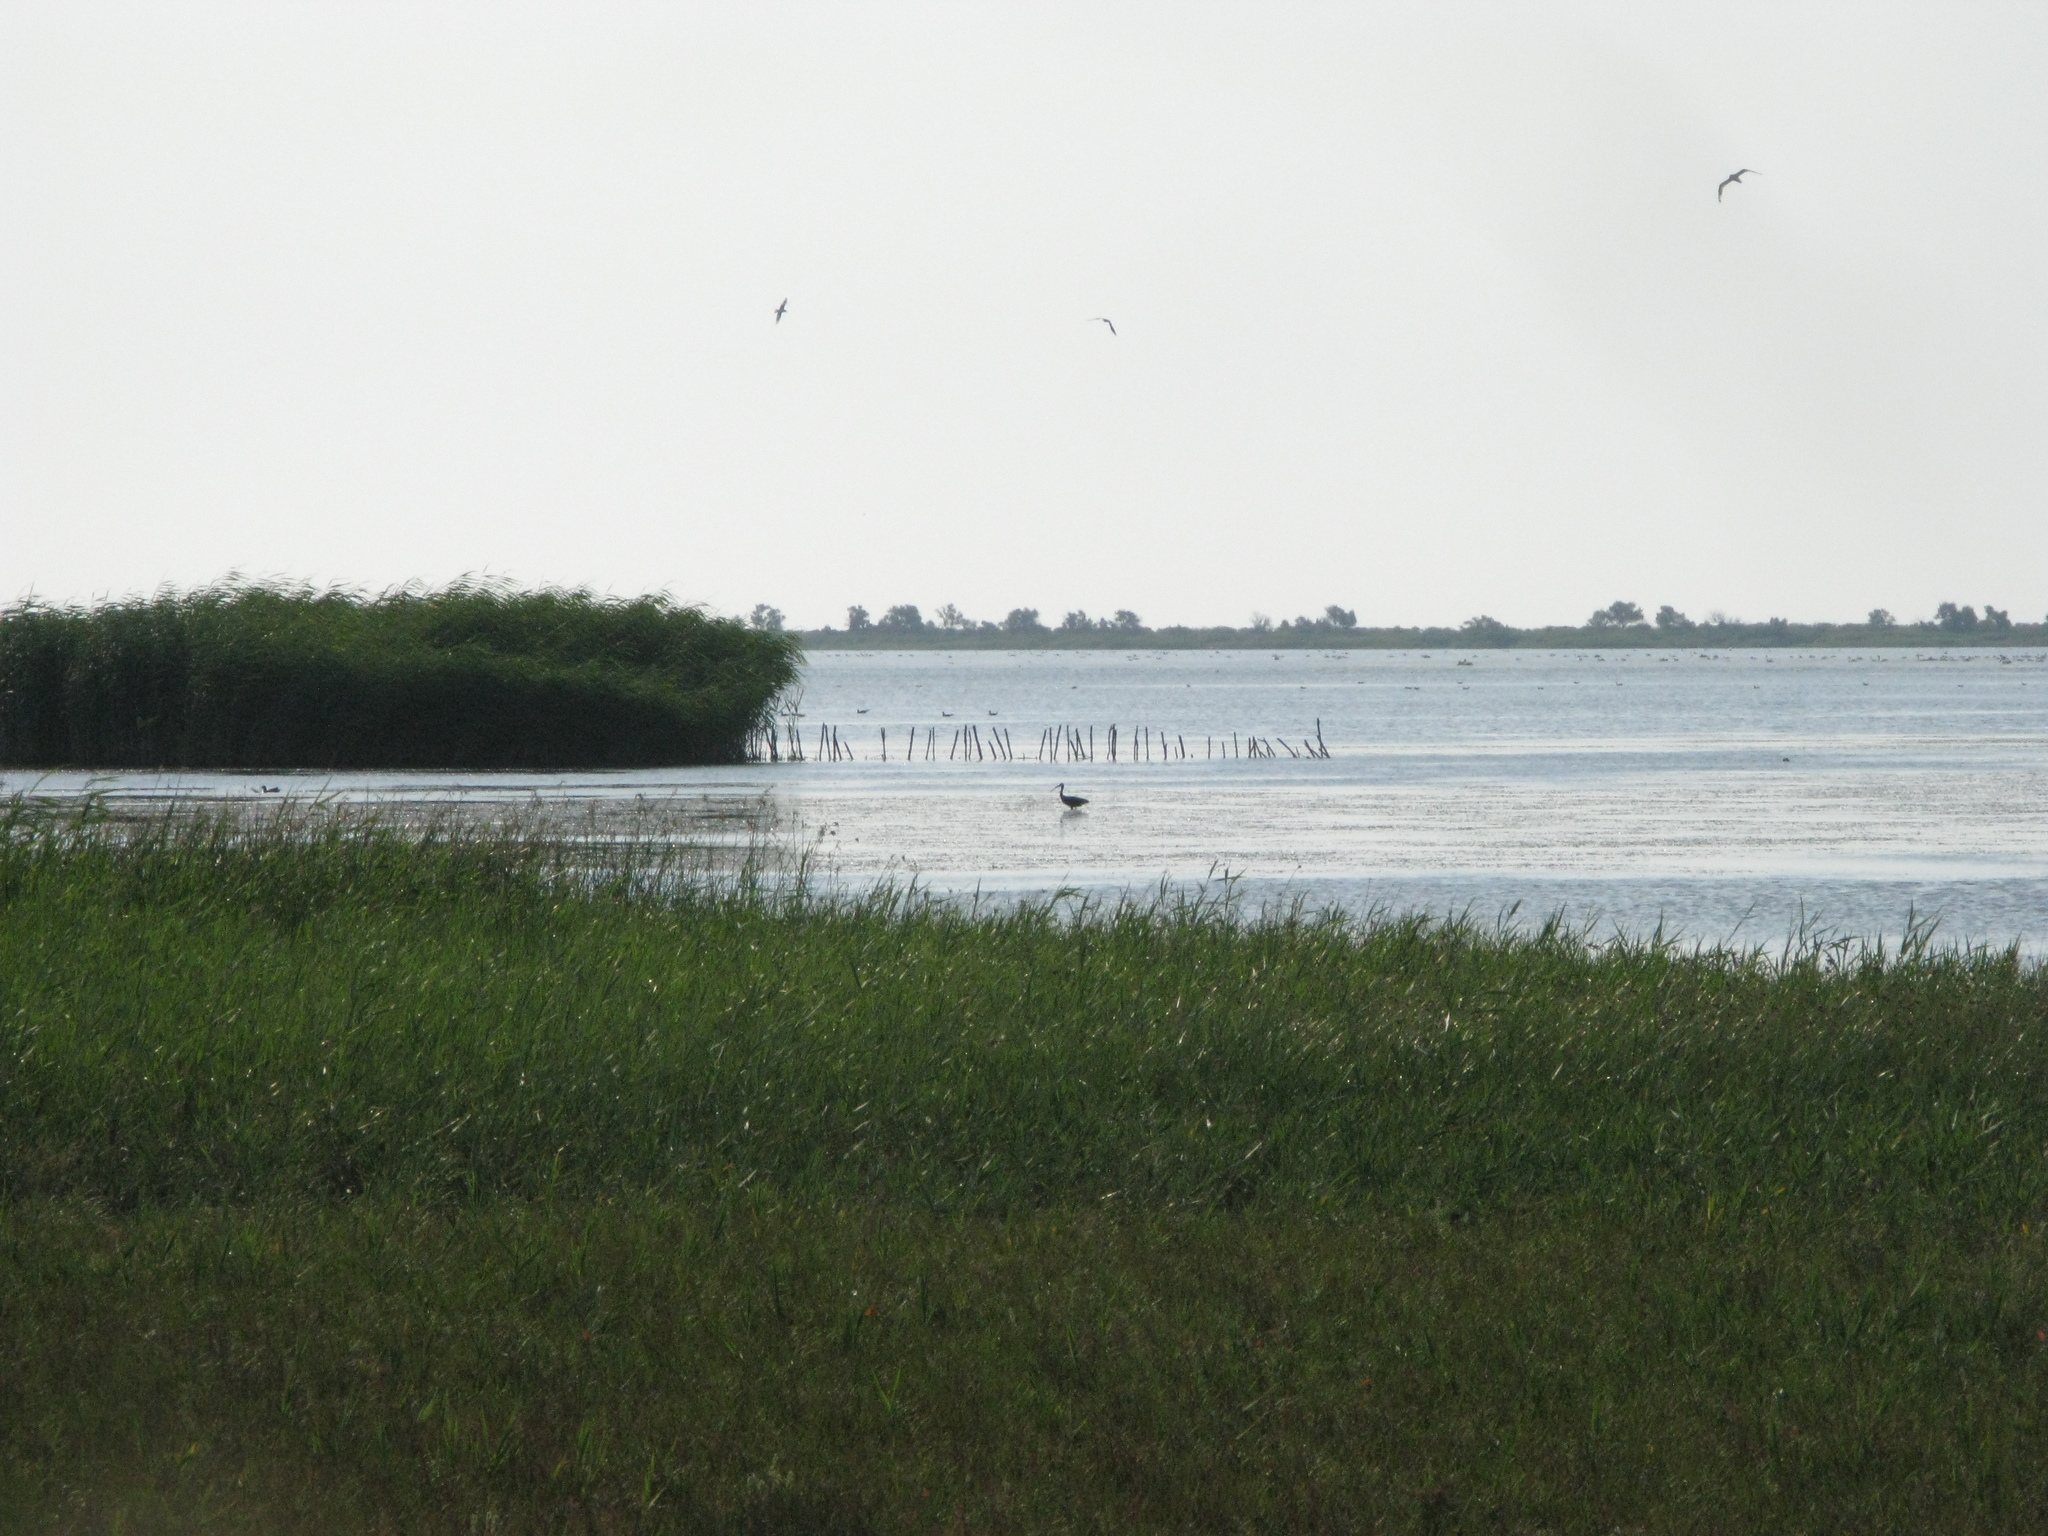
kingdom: Animalia
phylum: Chordata
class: Aves
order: Pelecaniformes
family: Threskiornithidae
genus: Plegadis
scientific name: Plegadis falcinellus
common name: Glossy ibis
